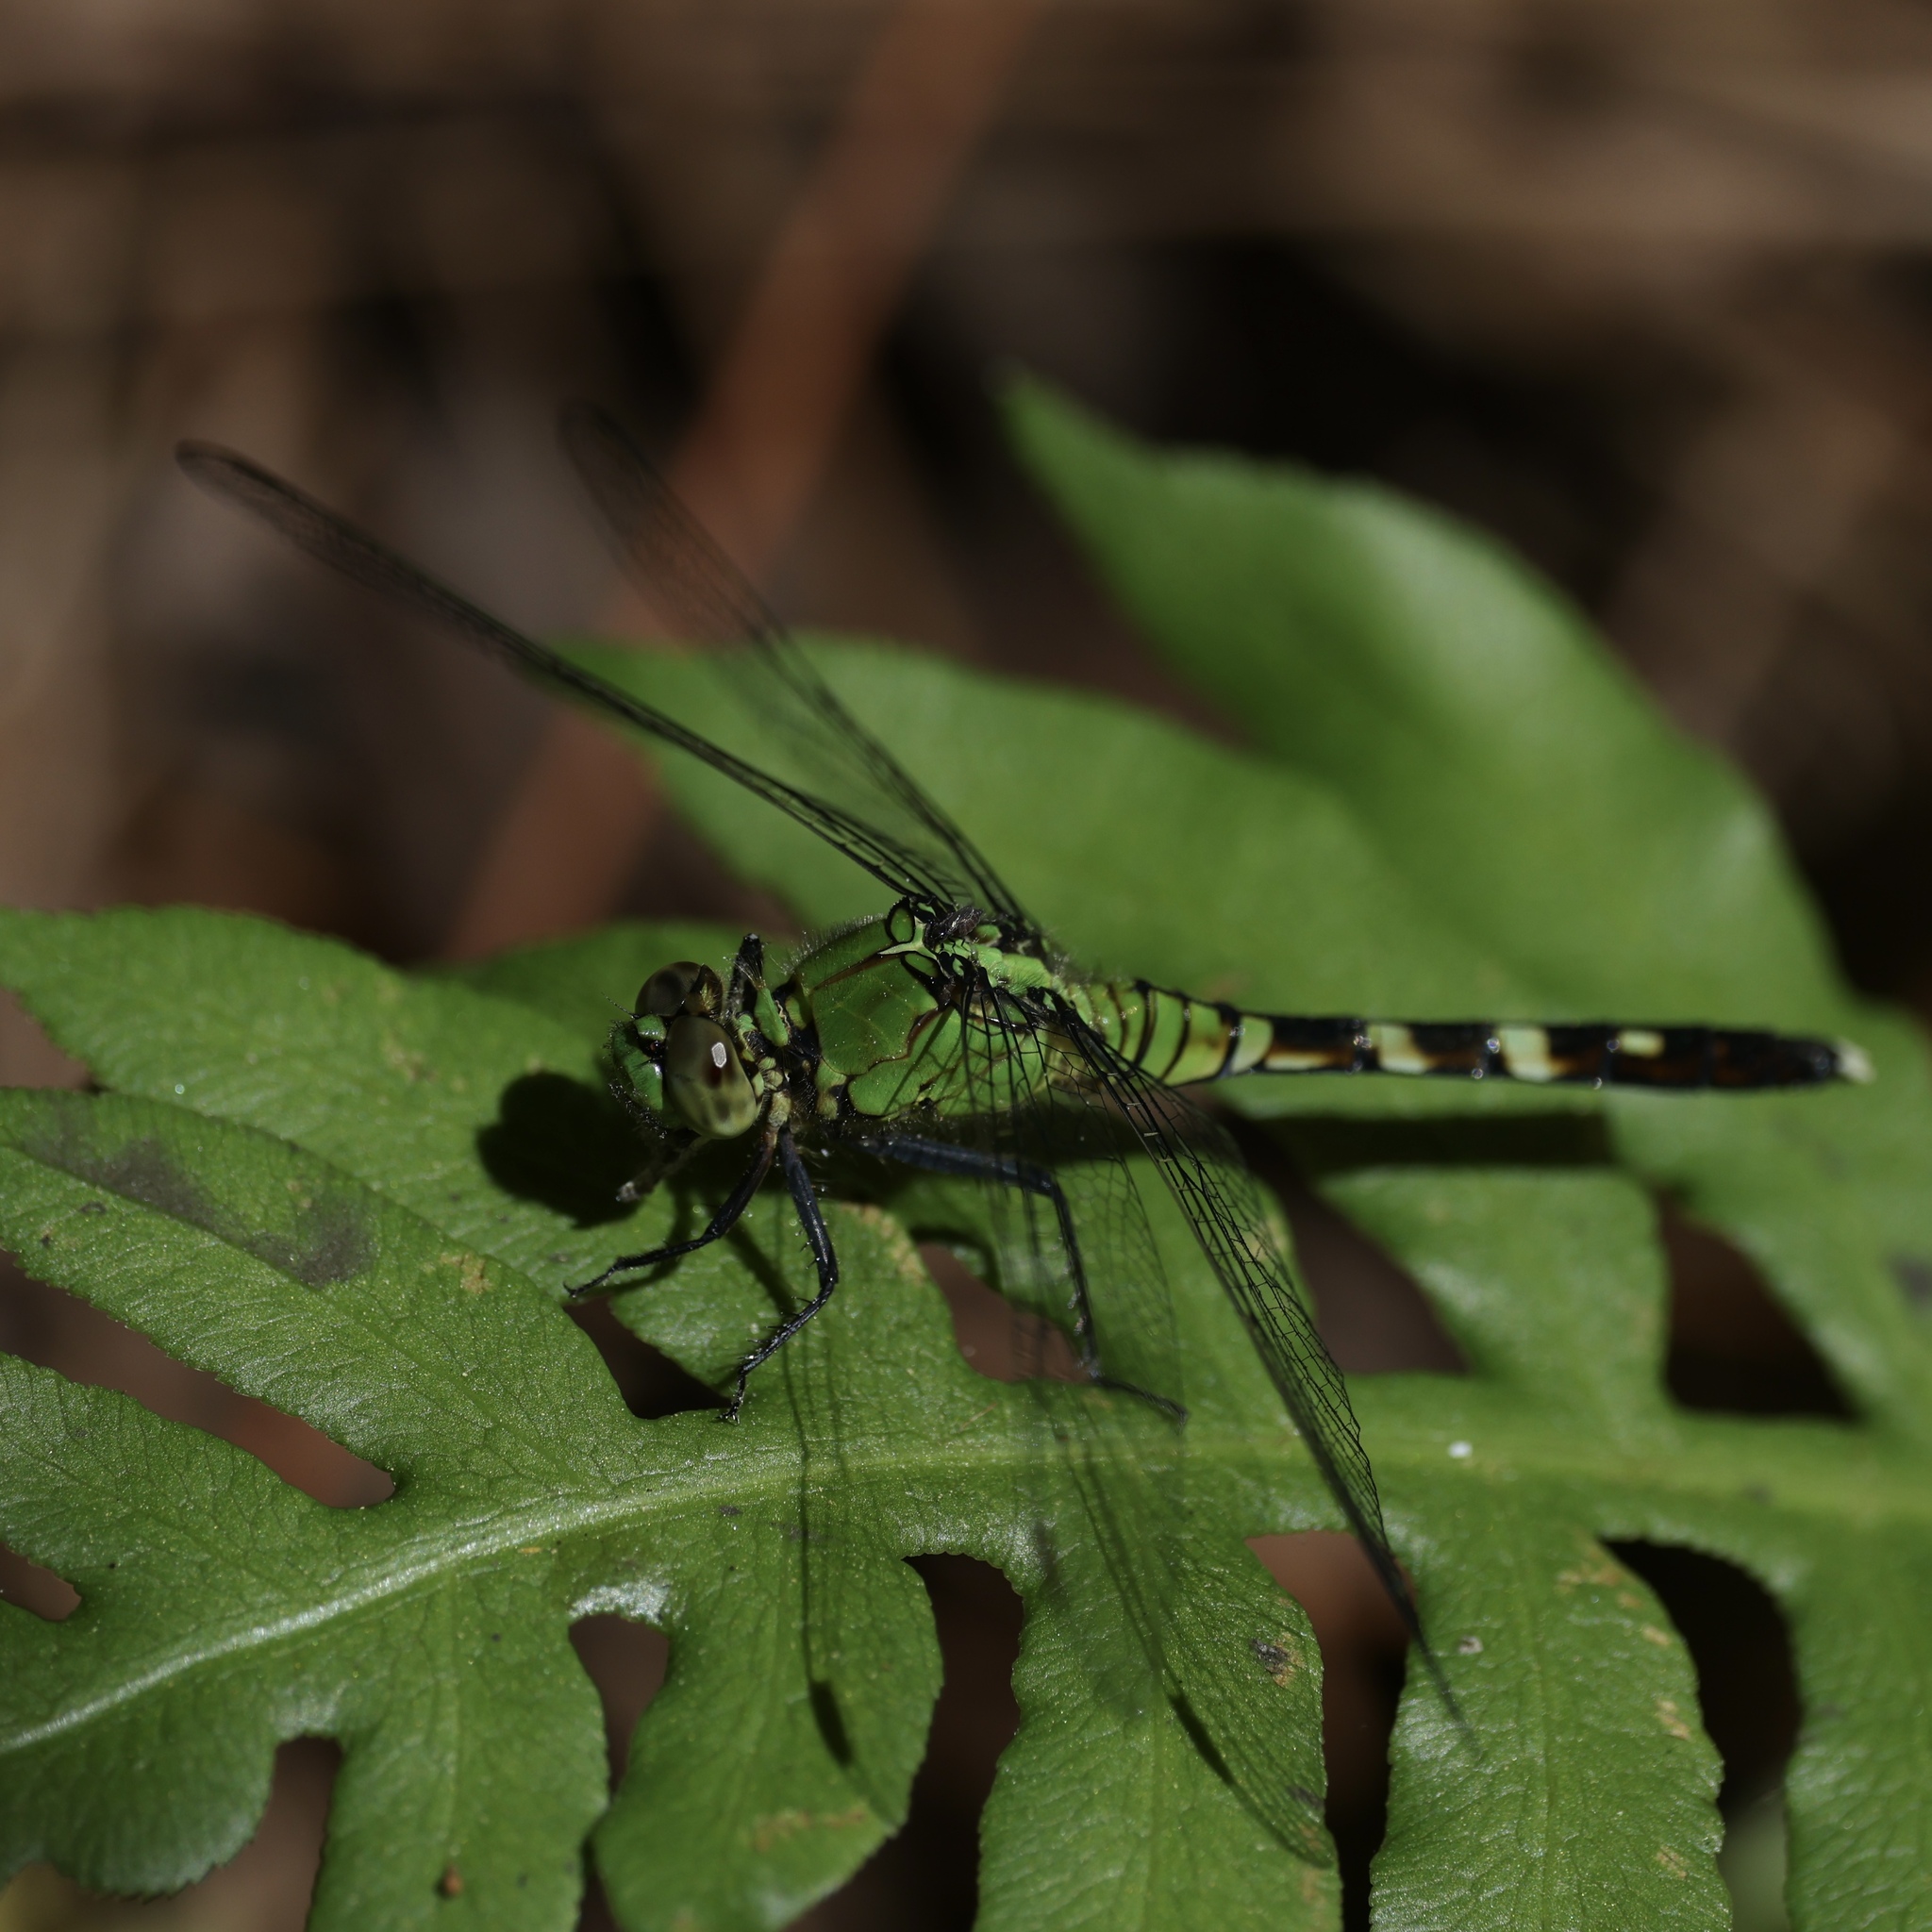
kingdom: Animalia
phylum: Arthropoda
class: Insecta
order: Odonata
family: Libellulidae
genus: Erythemis
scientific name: Erythemis simplicicollis
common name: Eastern pondhawk
